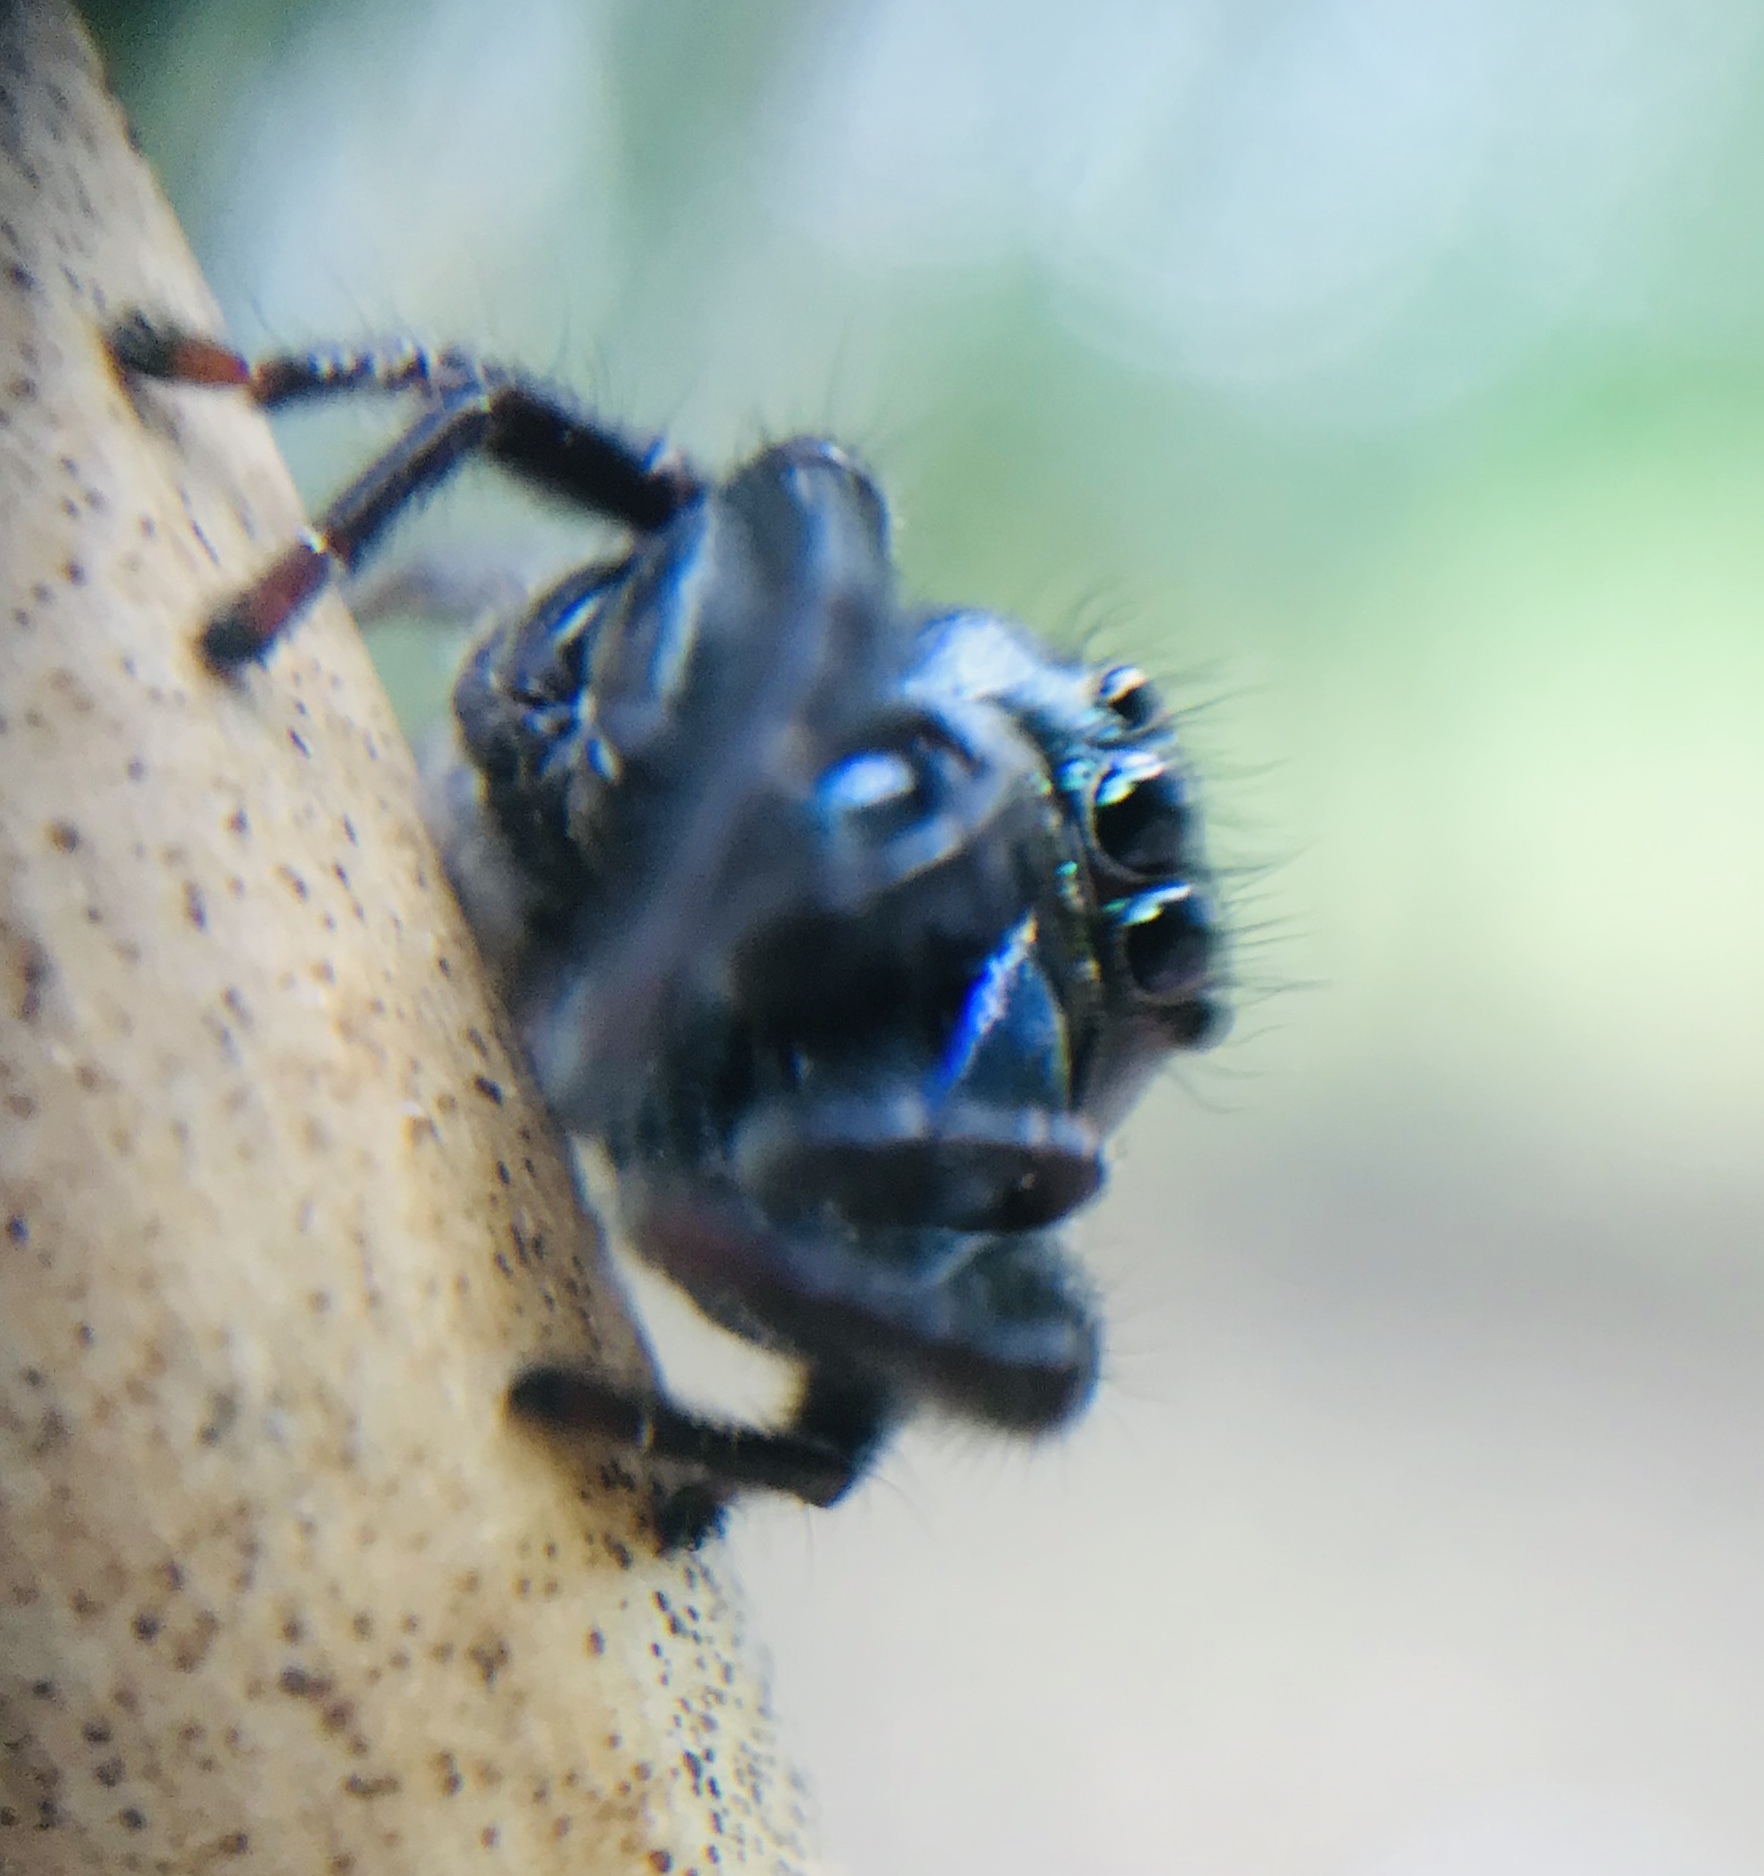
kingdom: Animalia
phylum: Arthropoda
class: Arachnida
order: Araneae
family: Salticidae
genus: Parnaenus
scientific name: Parnaenus cyanidens
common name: Jumping spiders
